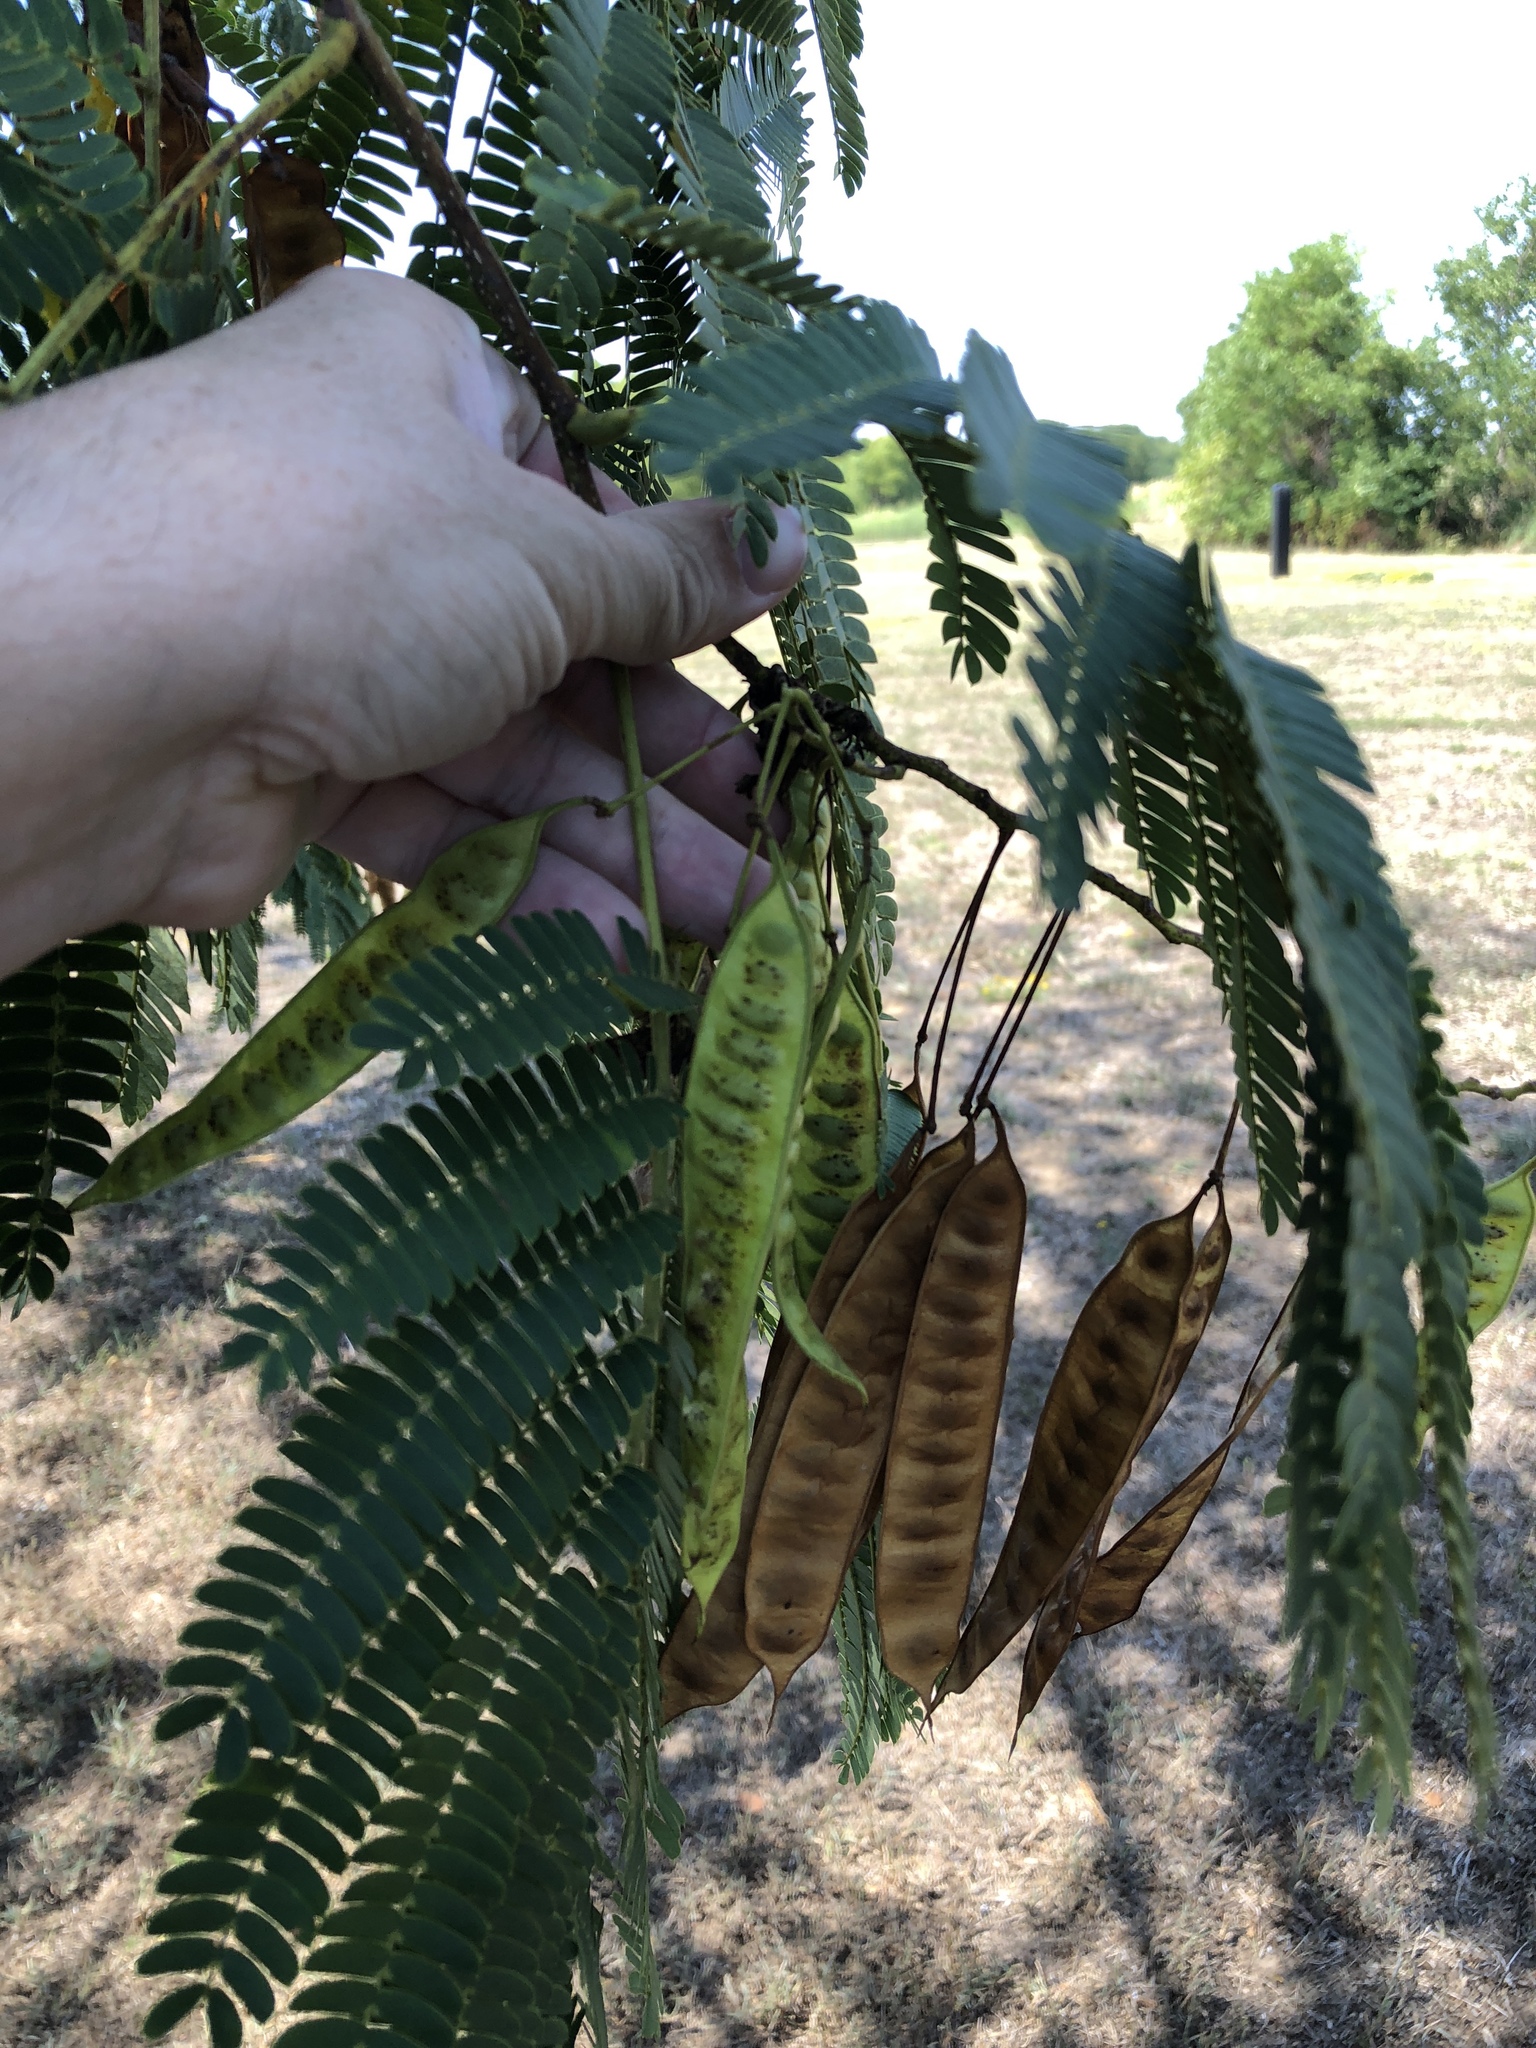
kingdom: Plantae
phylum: Tracheophyta
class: Magnoliopsida
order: Fabales
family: Fabaceae
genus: Albizia
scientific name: Albizia julibrissin
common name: Silktree
